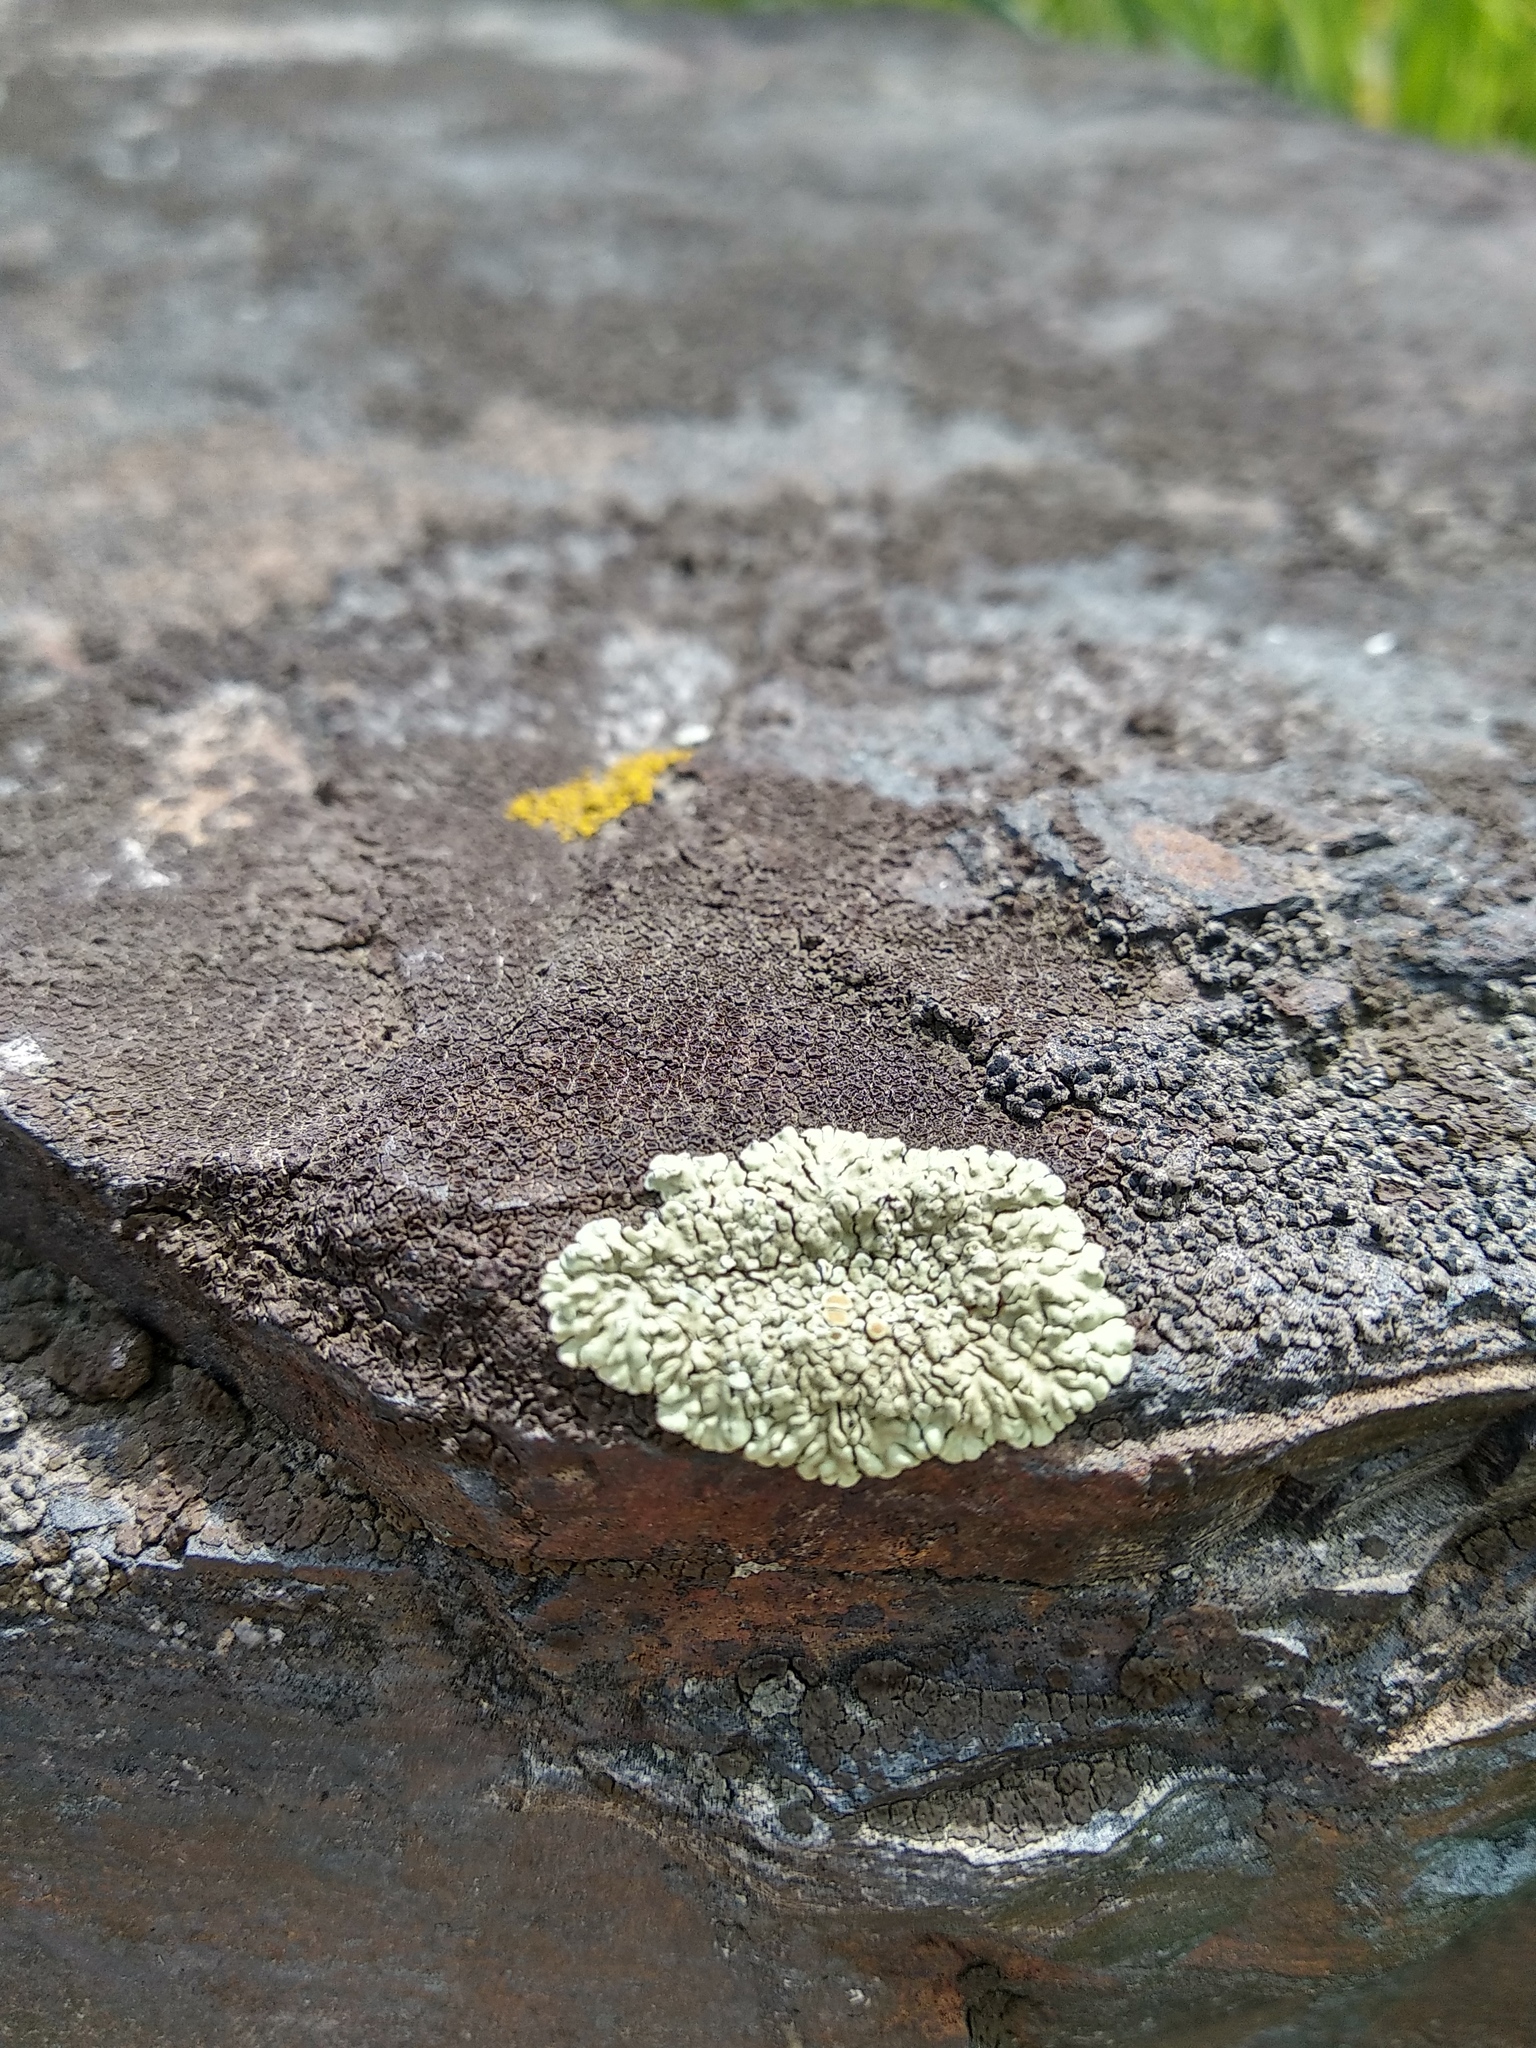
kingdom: Fungi
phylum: Ascomycota
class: Lecanoromycetes
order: Lecanorales
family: Lecanoraceae
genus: Protoparmeliopsis
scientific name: Protoparmeliopsis muralis
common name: Stonewall rim lichen
